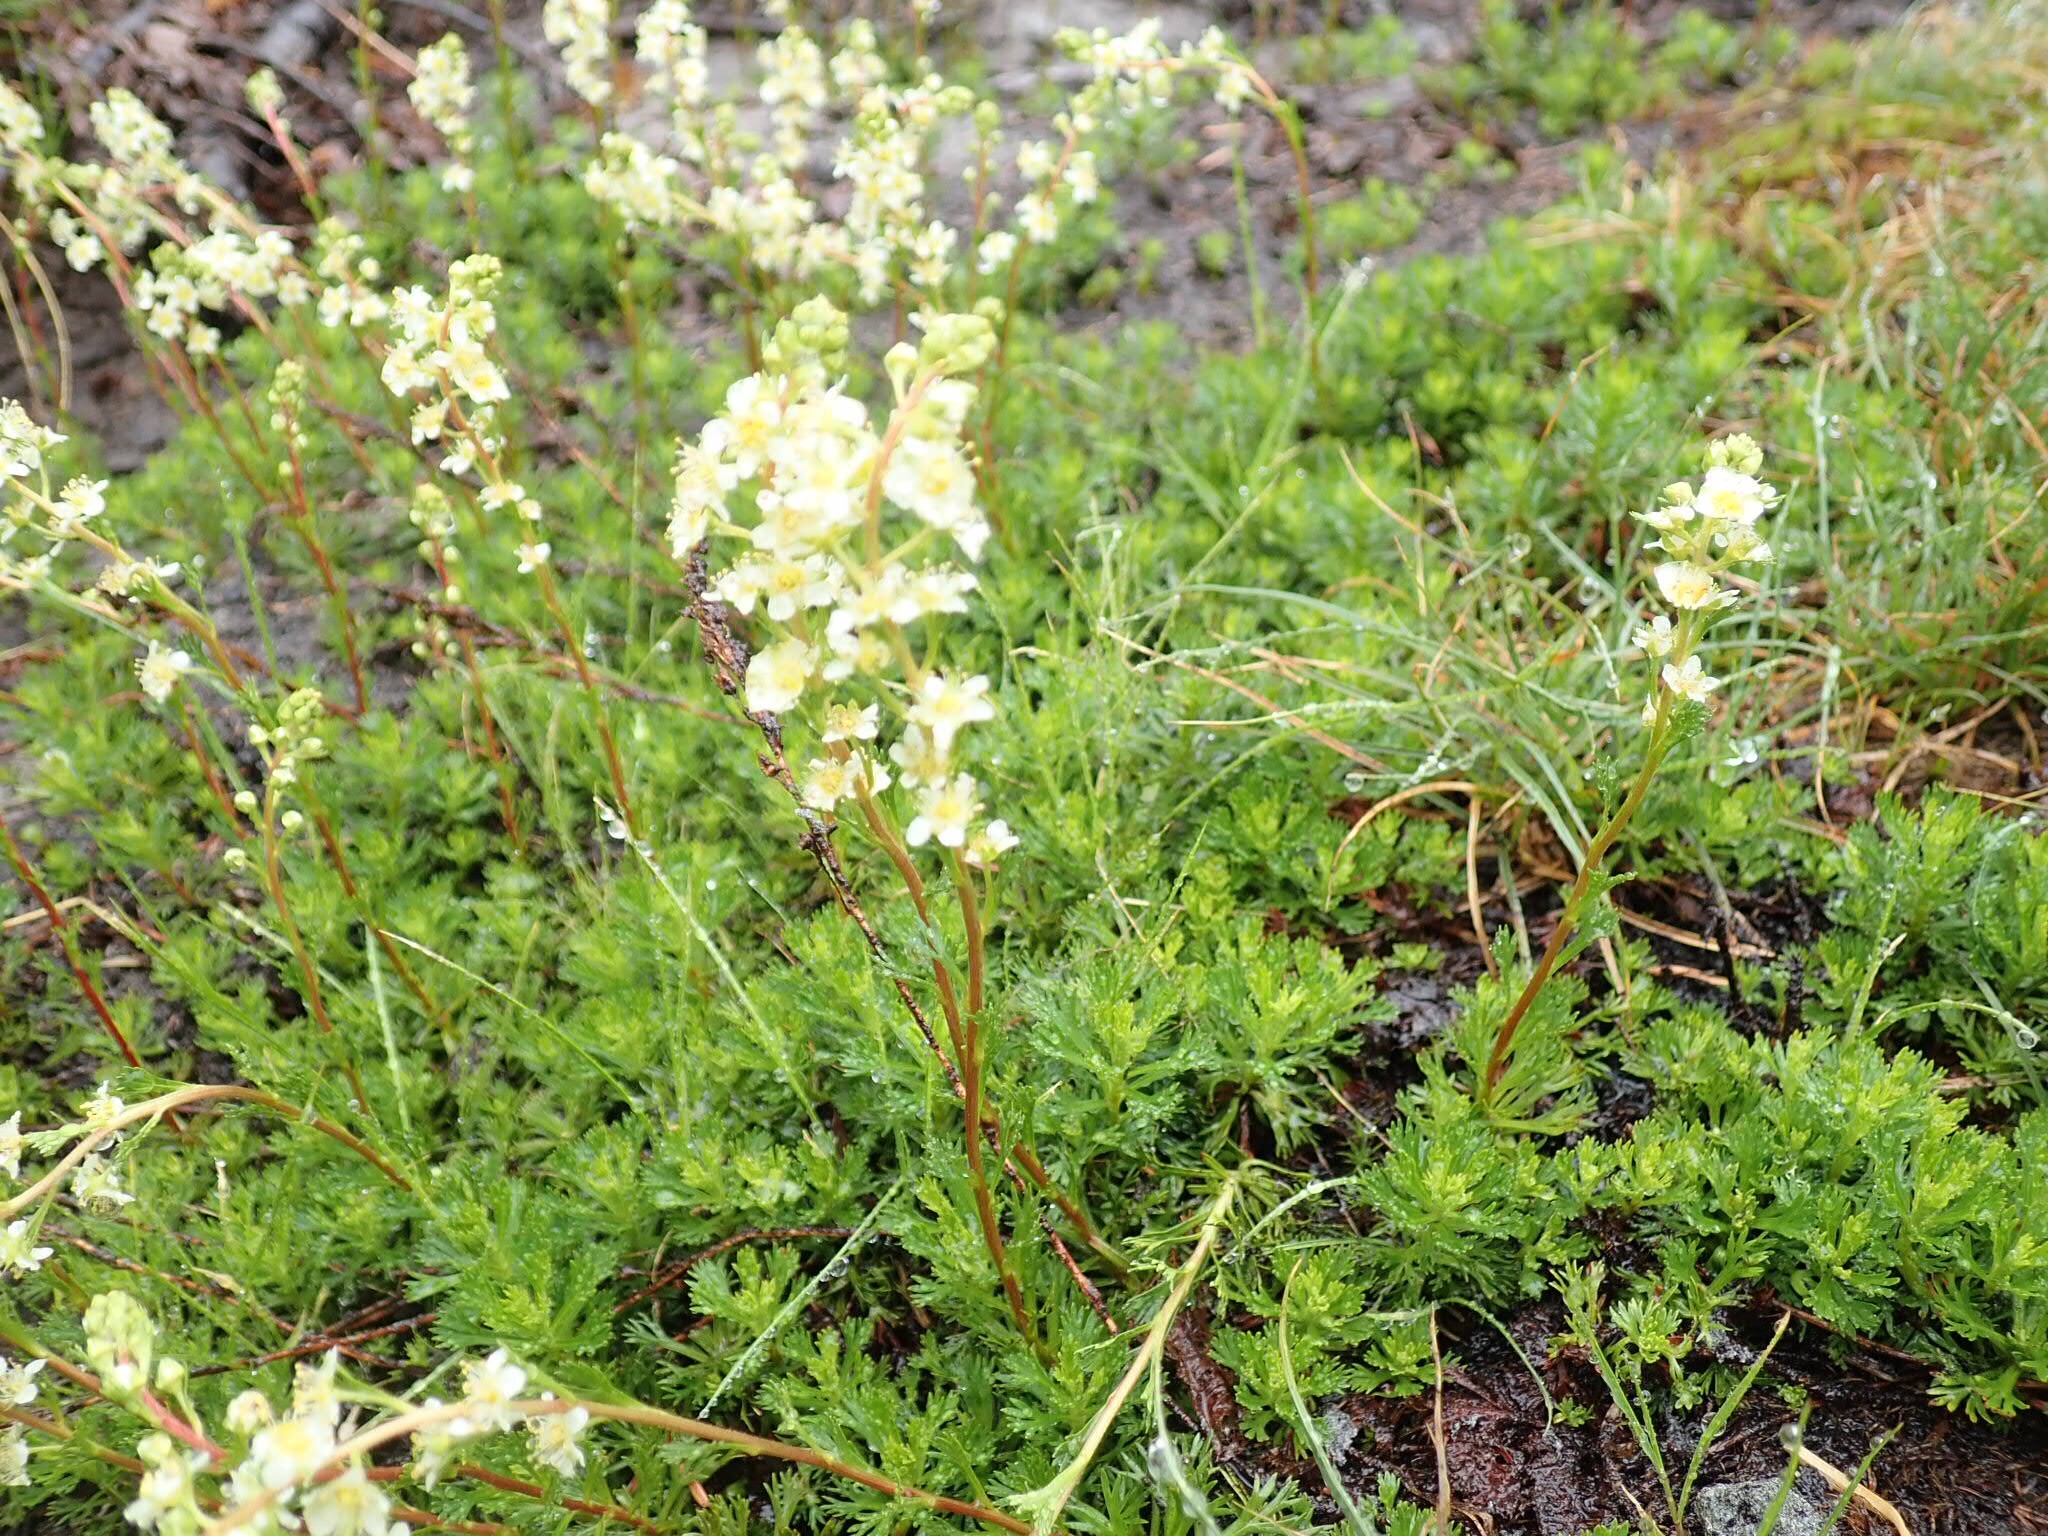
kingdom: Plantae
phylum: Tracheophyta
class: Magnoliopsida
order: Rosales
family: Rosaceae
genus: Luetkea
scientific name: Luetkea pectinata
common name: Partridgefoot
